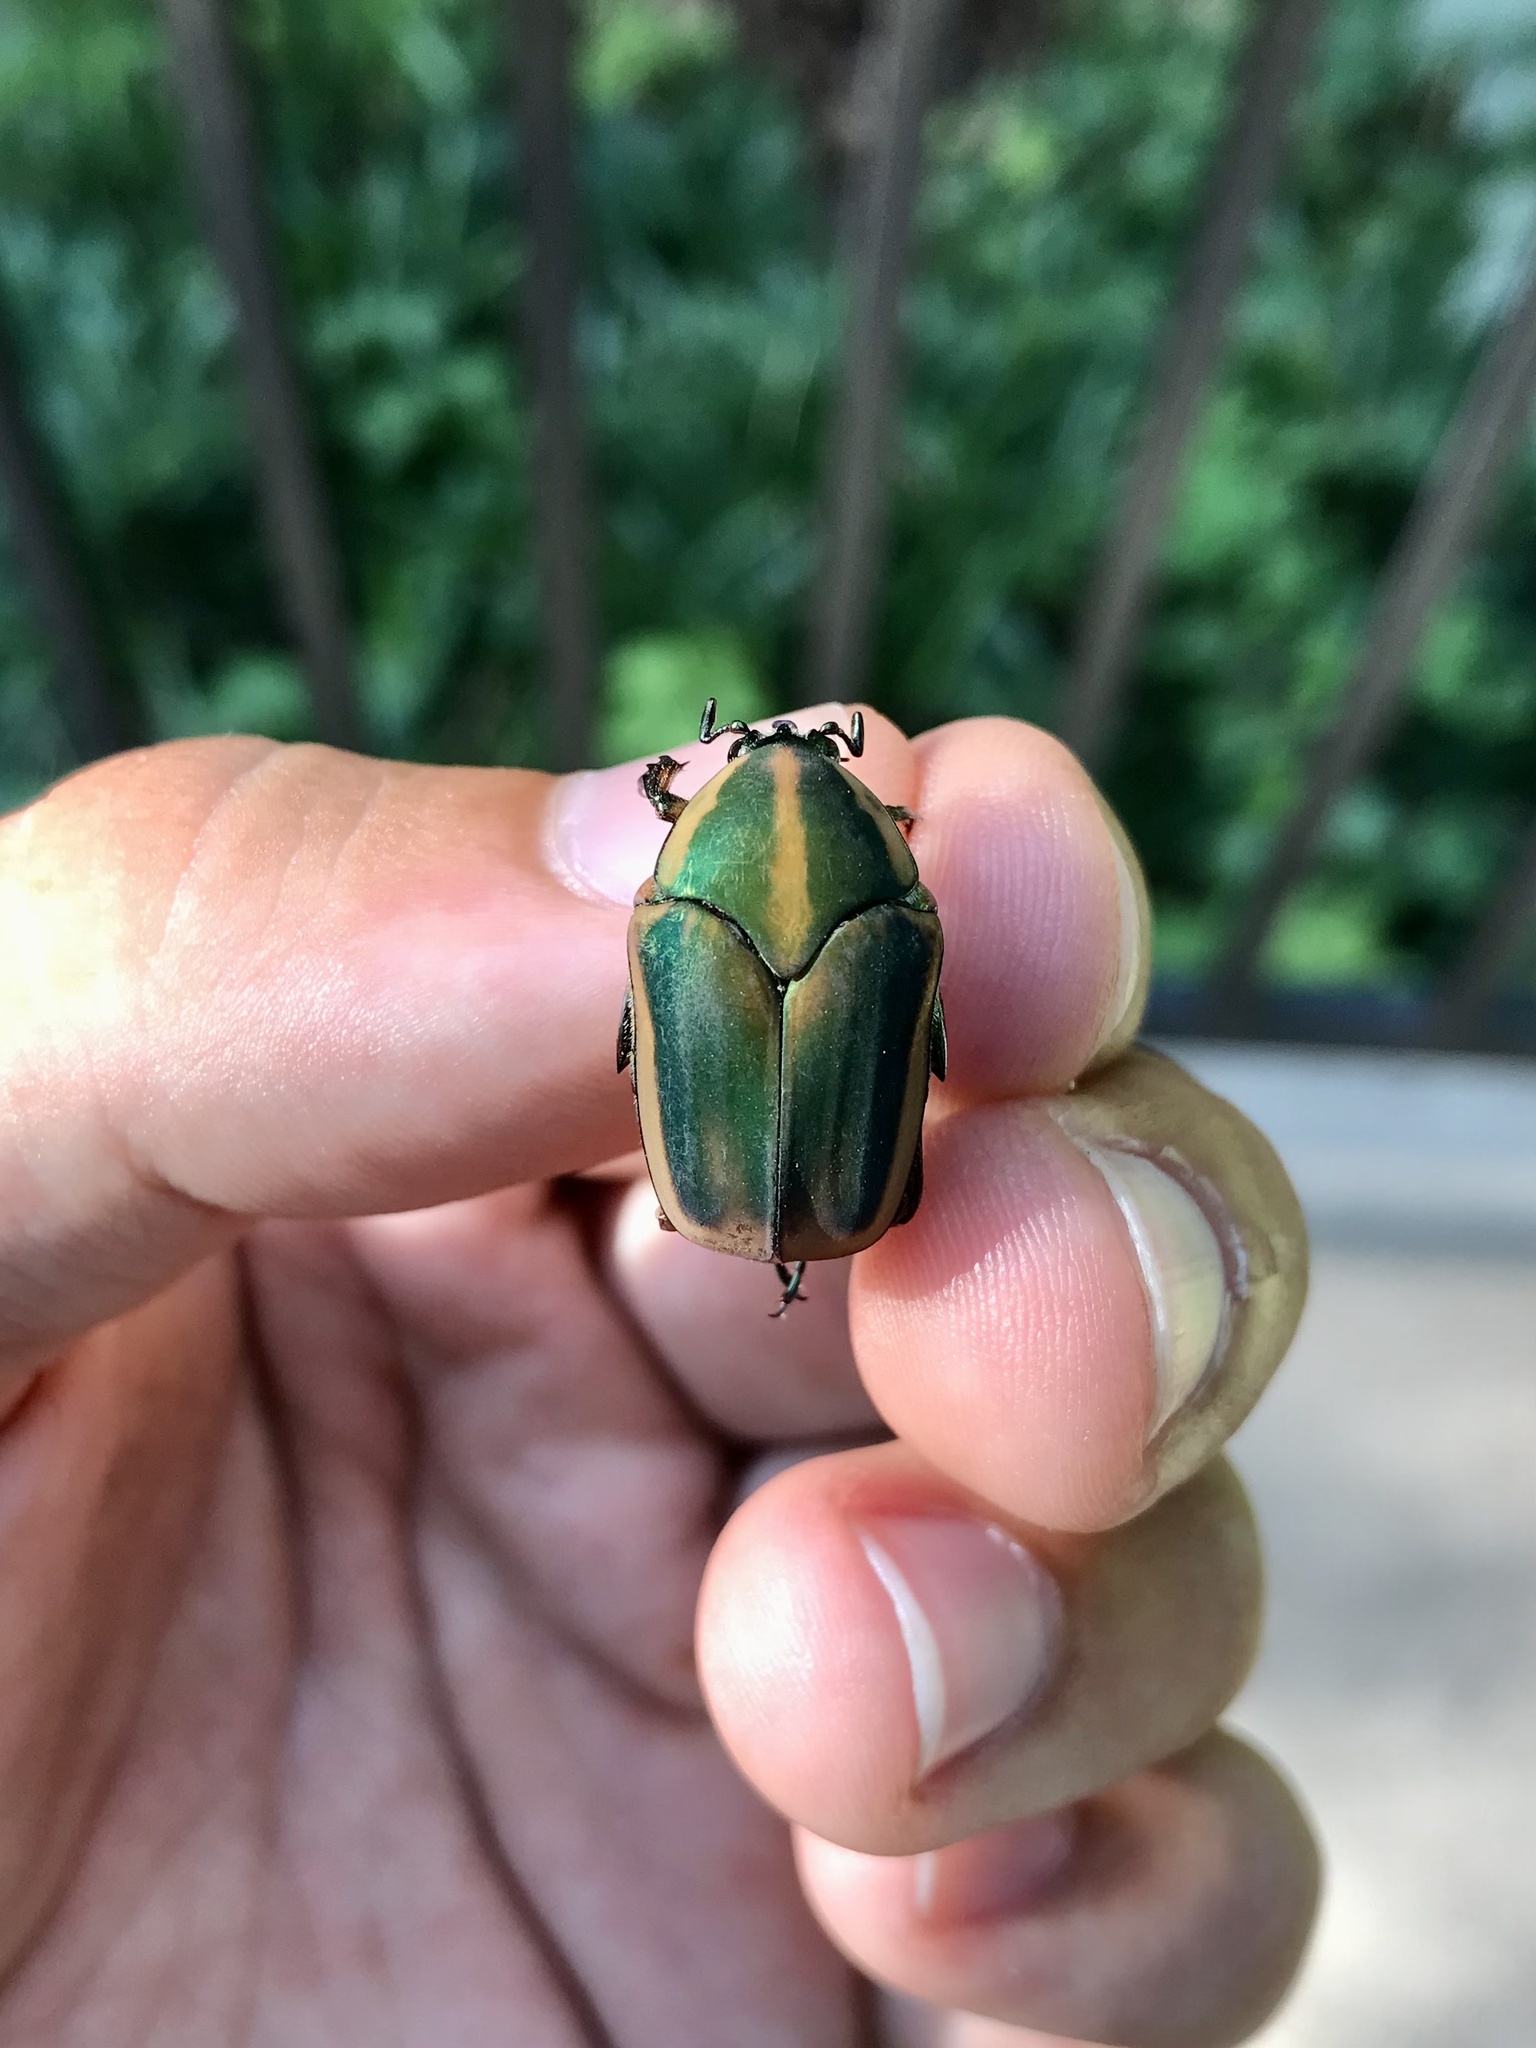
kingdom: Animalia
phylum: Arthropoda
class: Insecta
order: Coleoptera
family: Scarabaeidae
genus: Cotinis
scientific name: Cotinis nitida
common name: Common green june beetle
